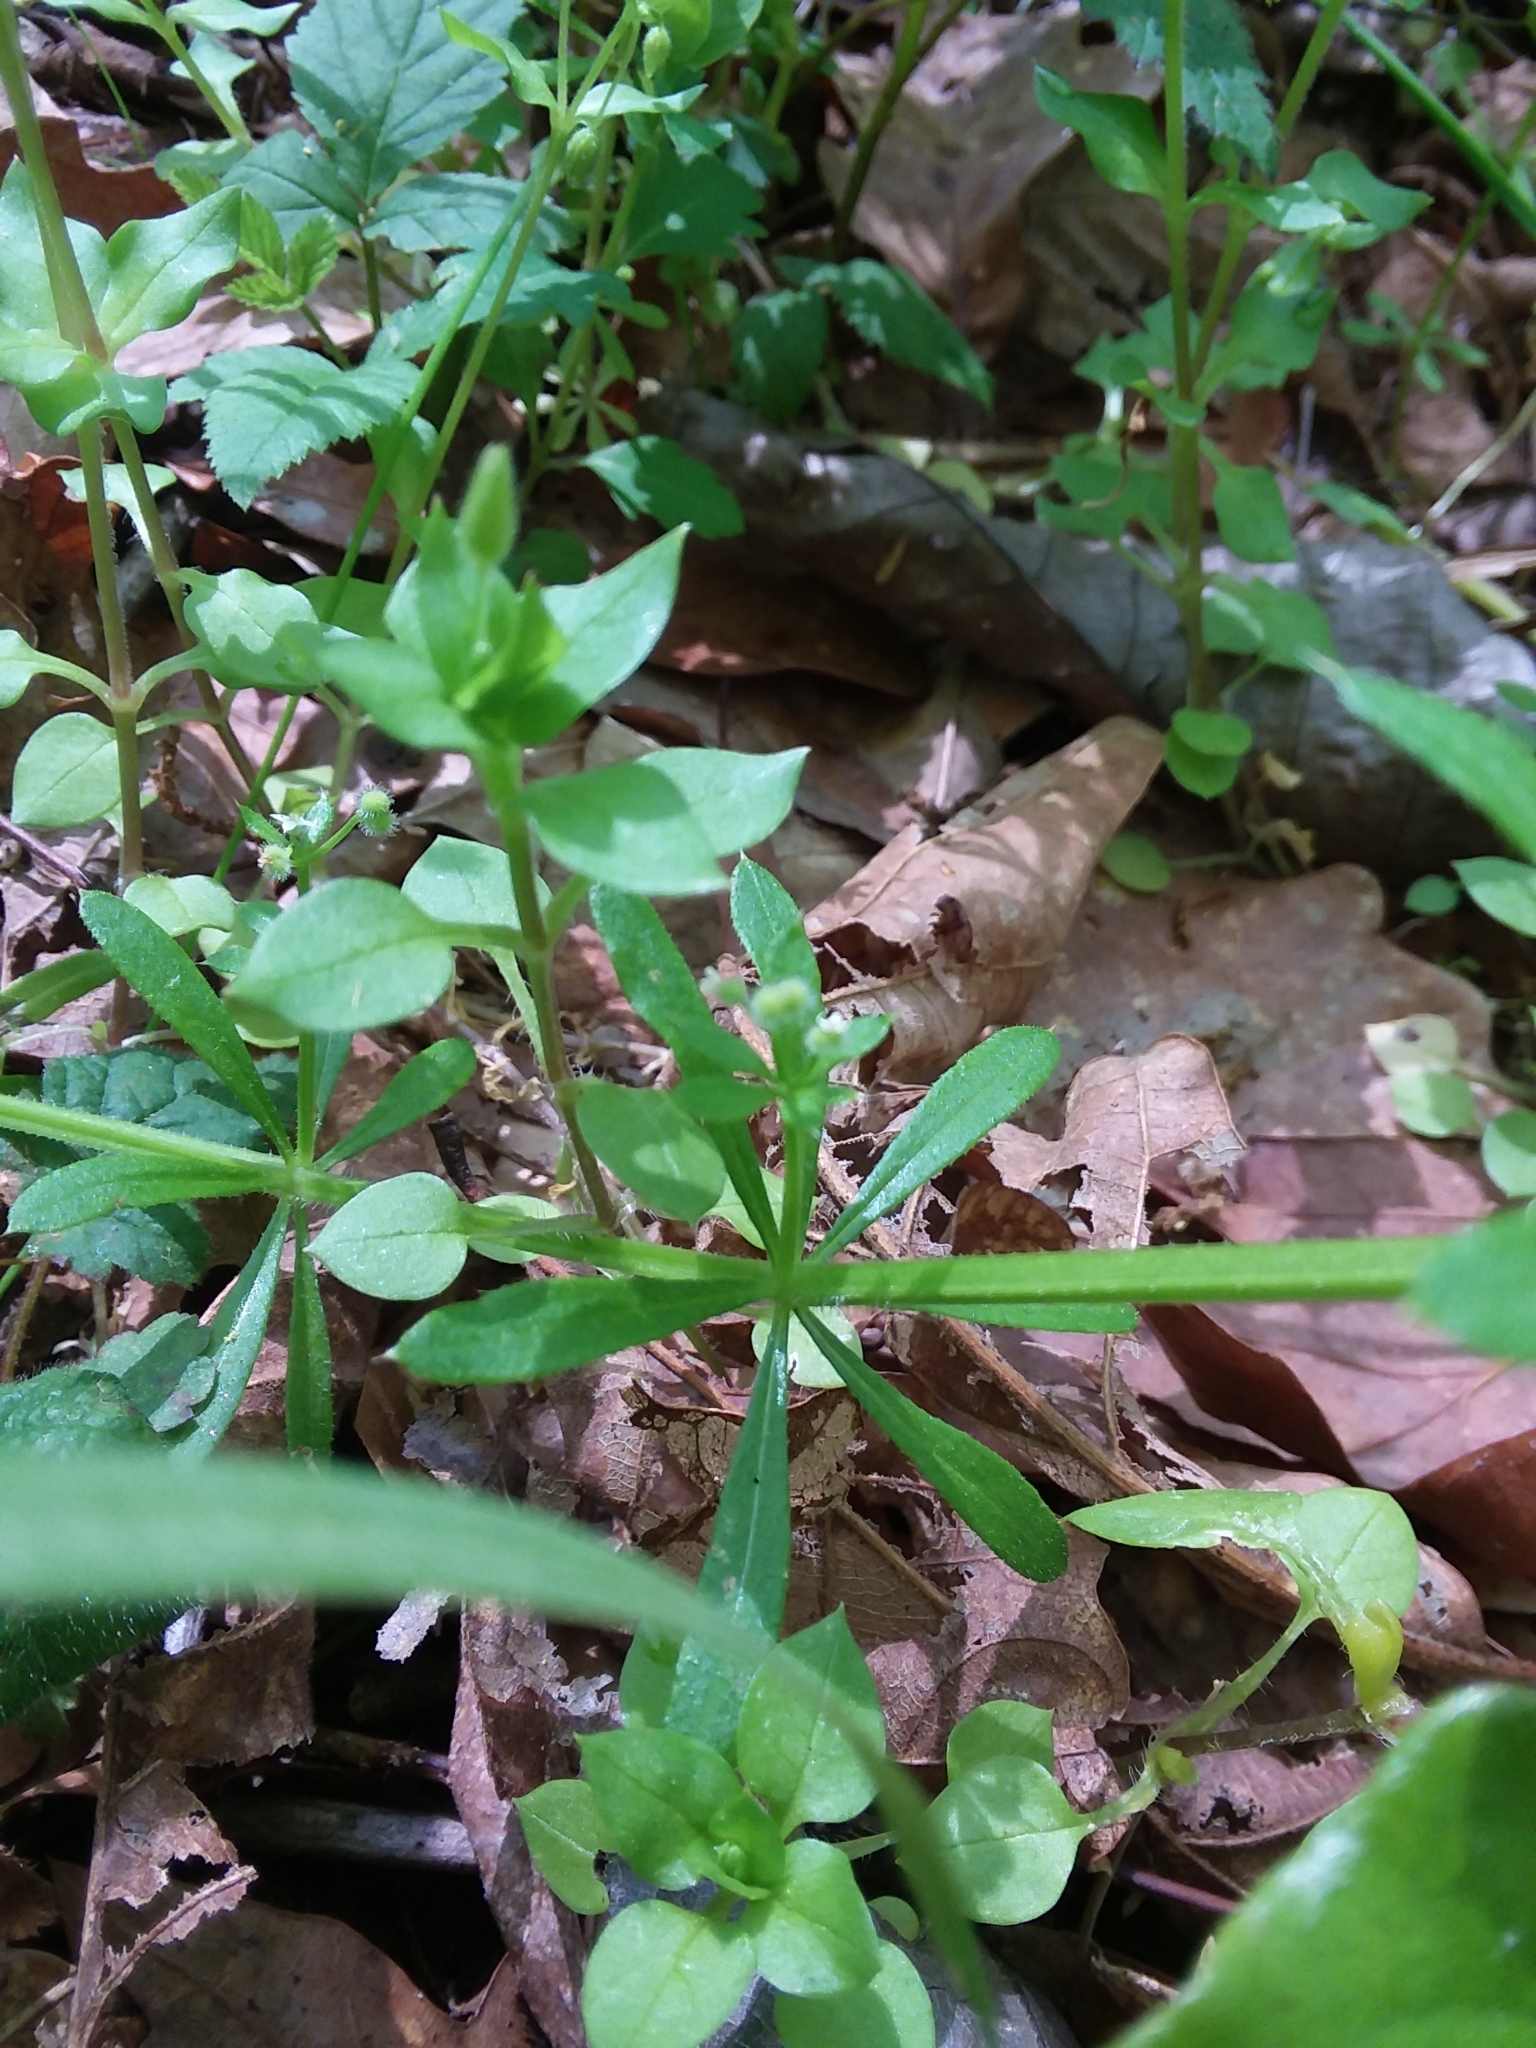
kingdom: Plantae
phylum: Tracheophyta
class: Magnoliopsida
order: Gentianales
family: Rubiaceae
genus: Galium
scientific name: Galium aparine
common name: Cleavers
